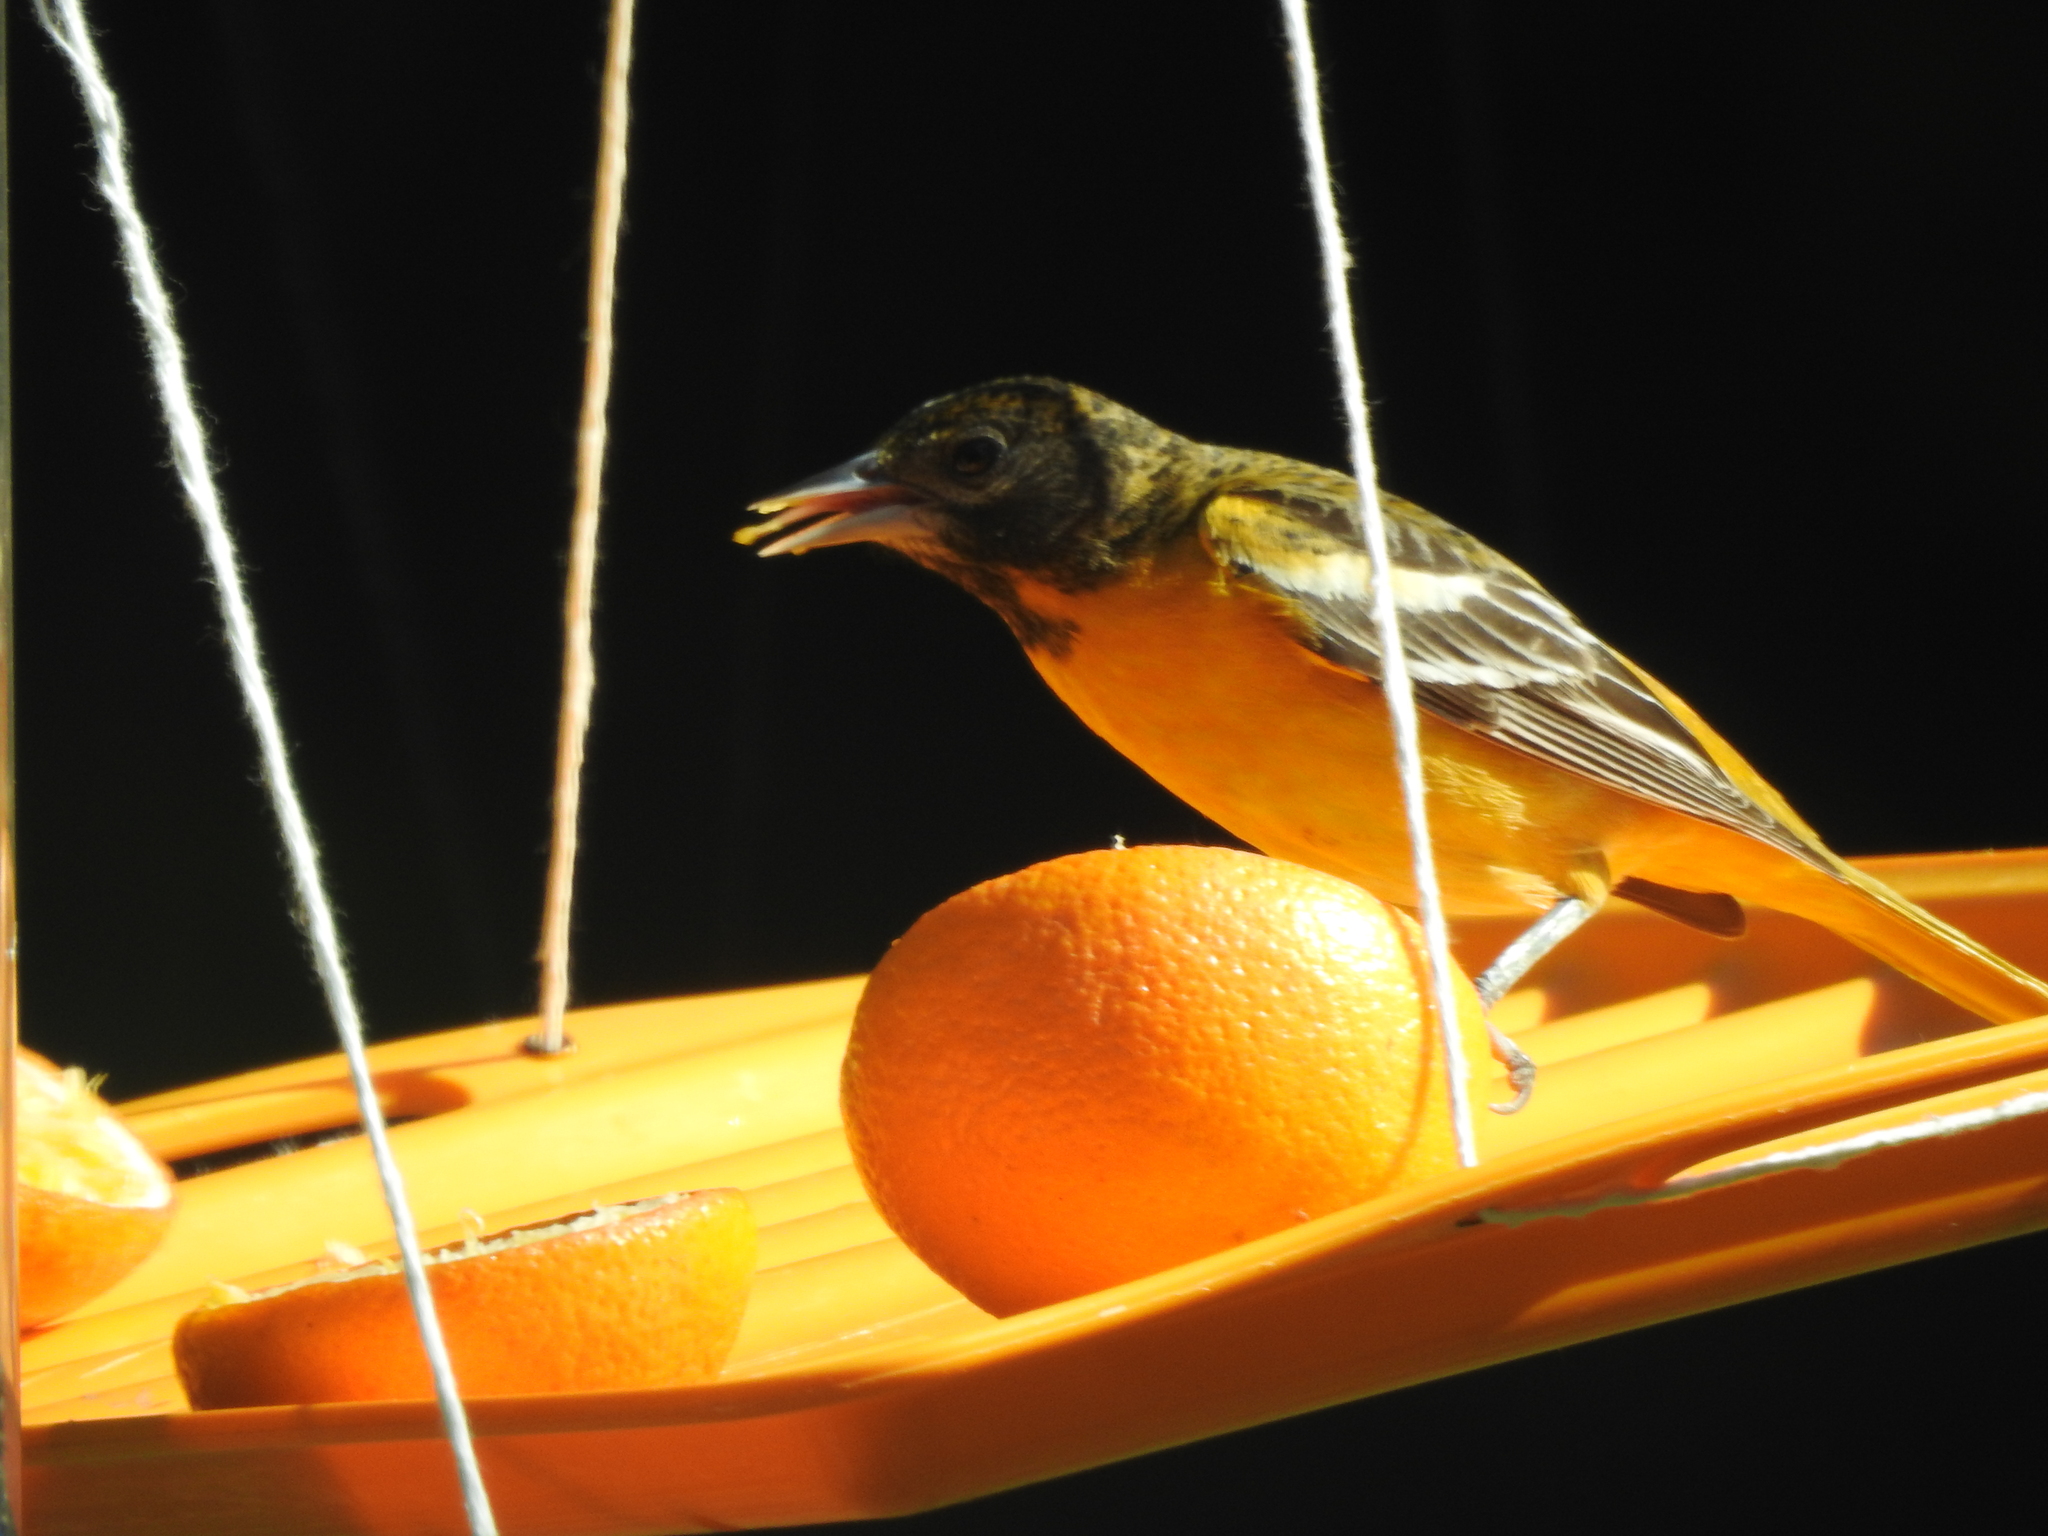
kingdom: Animalia
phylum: Chordata
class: Aves
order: Passeriformes
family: Icteridae
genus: Icterus
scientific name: Icterus galbula
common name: Baltimore oriole
